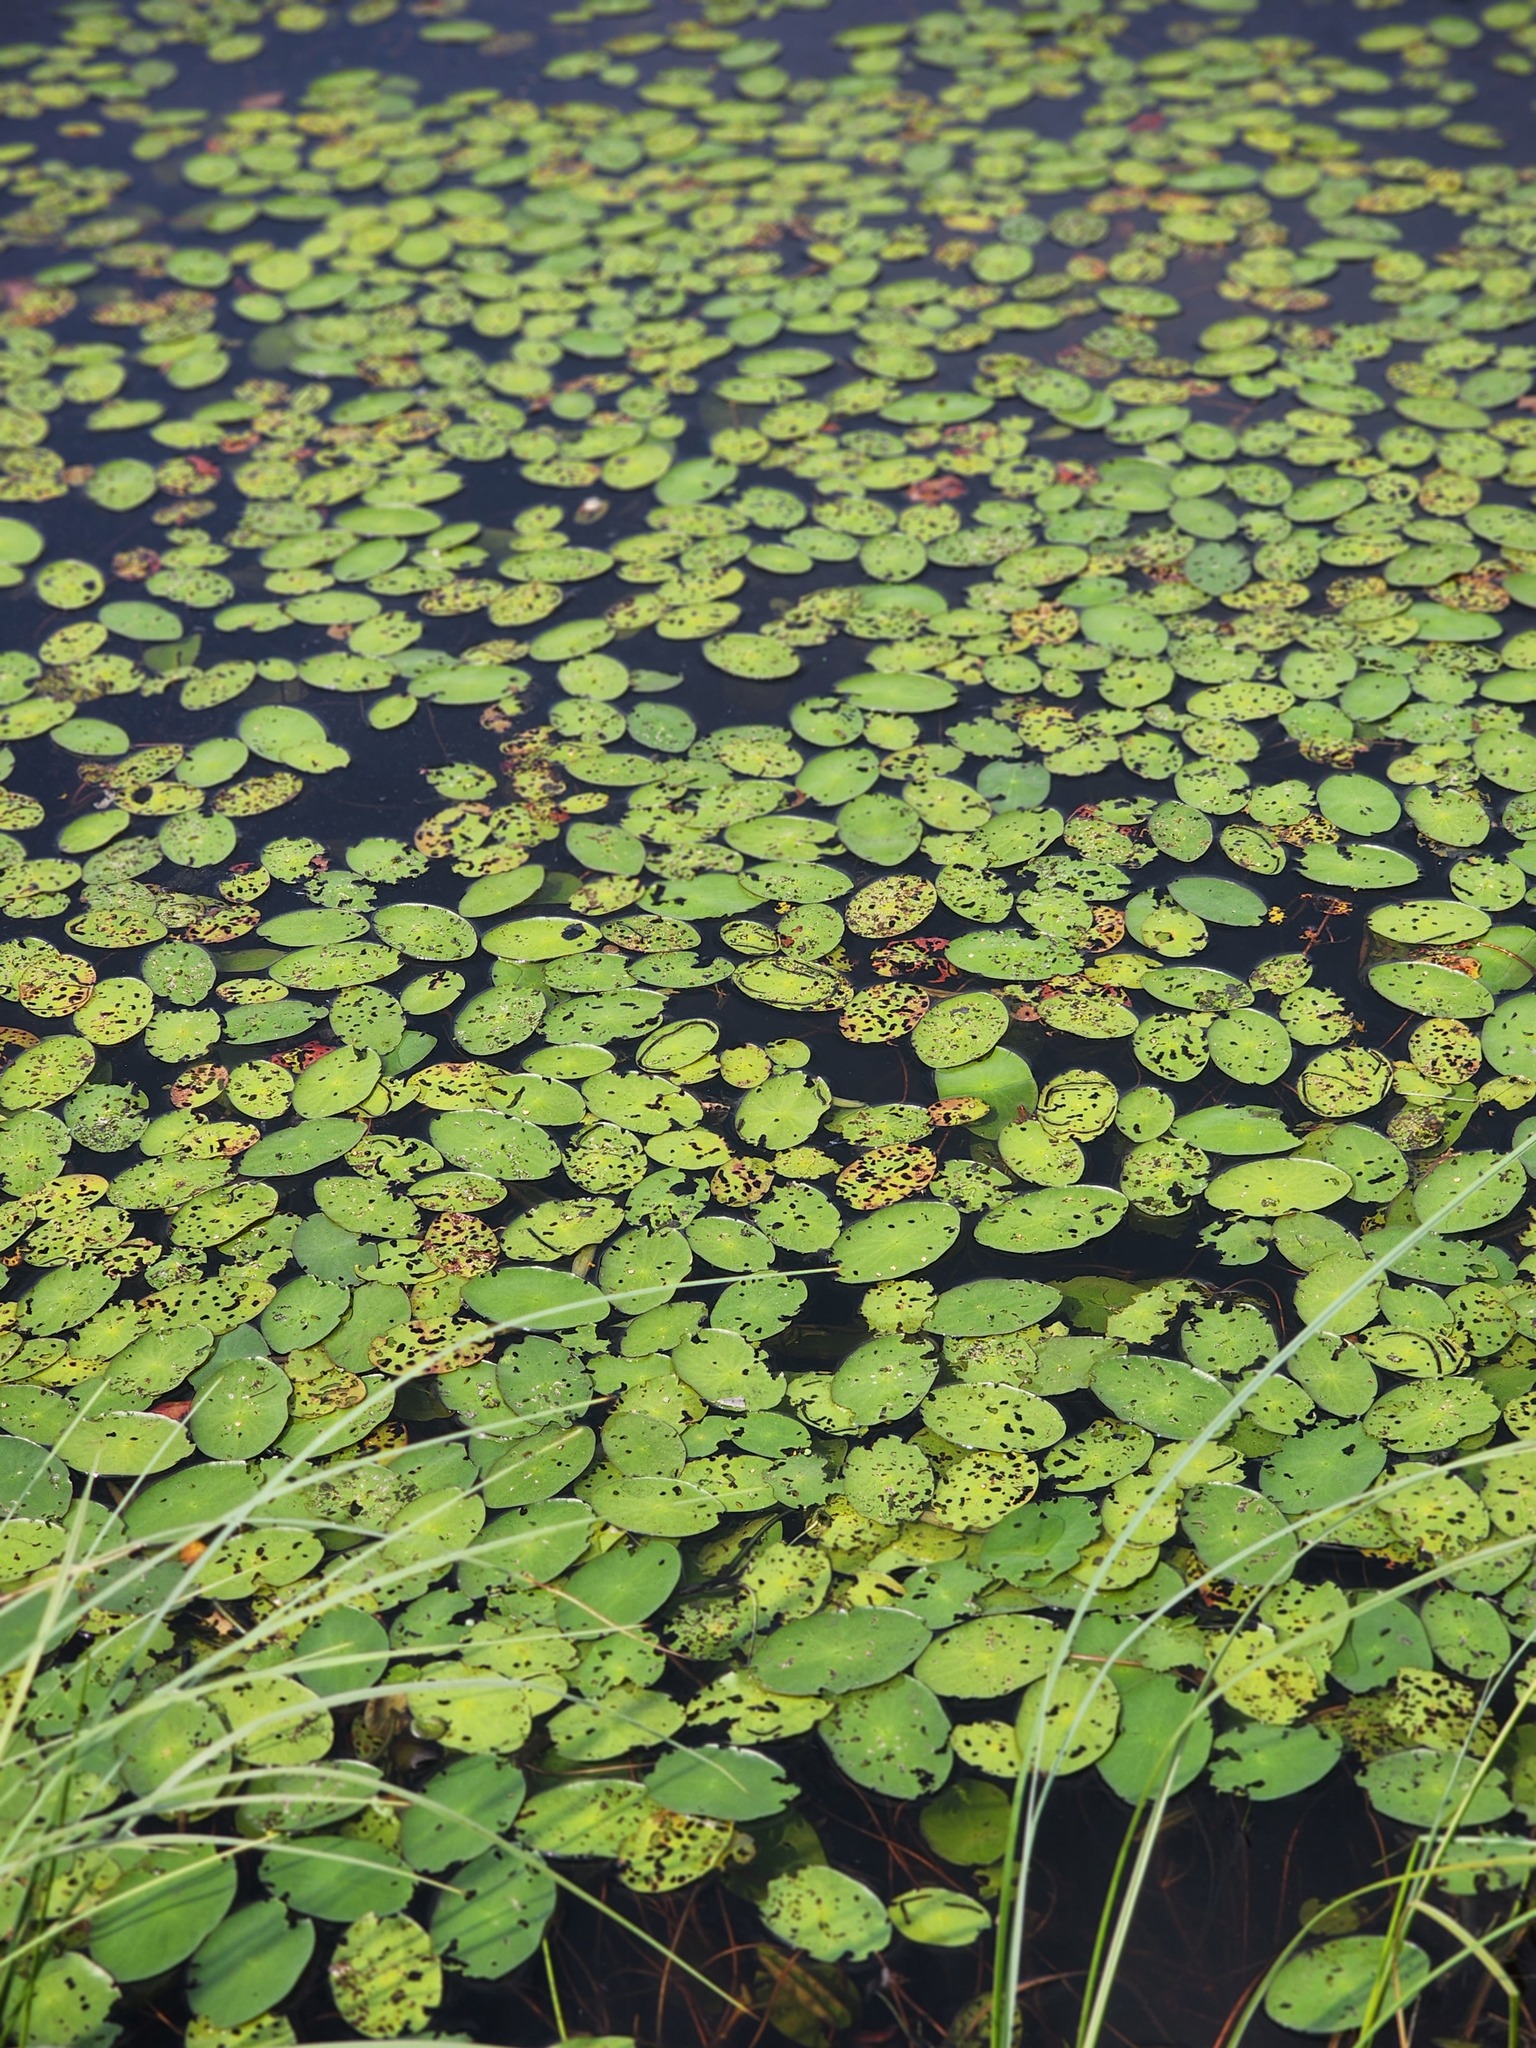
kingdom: Plantae
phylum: Tracheophyta
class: Magnoliopsida
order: Nymphaeales
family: Cabombaceae
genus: Brasenia
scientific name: Brasenia schreberi
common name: Water-shield
